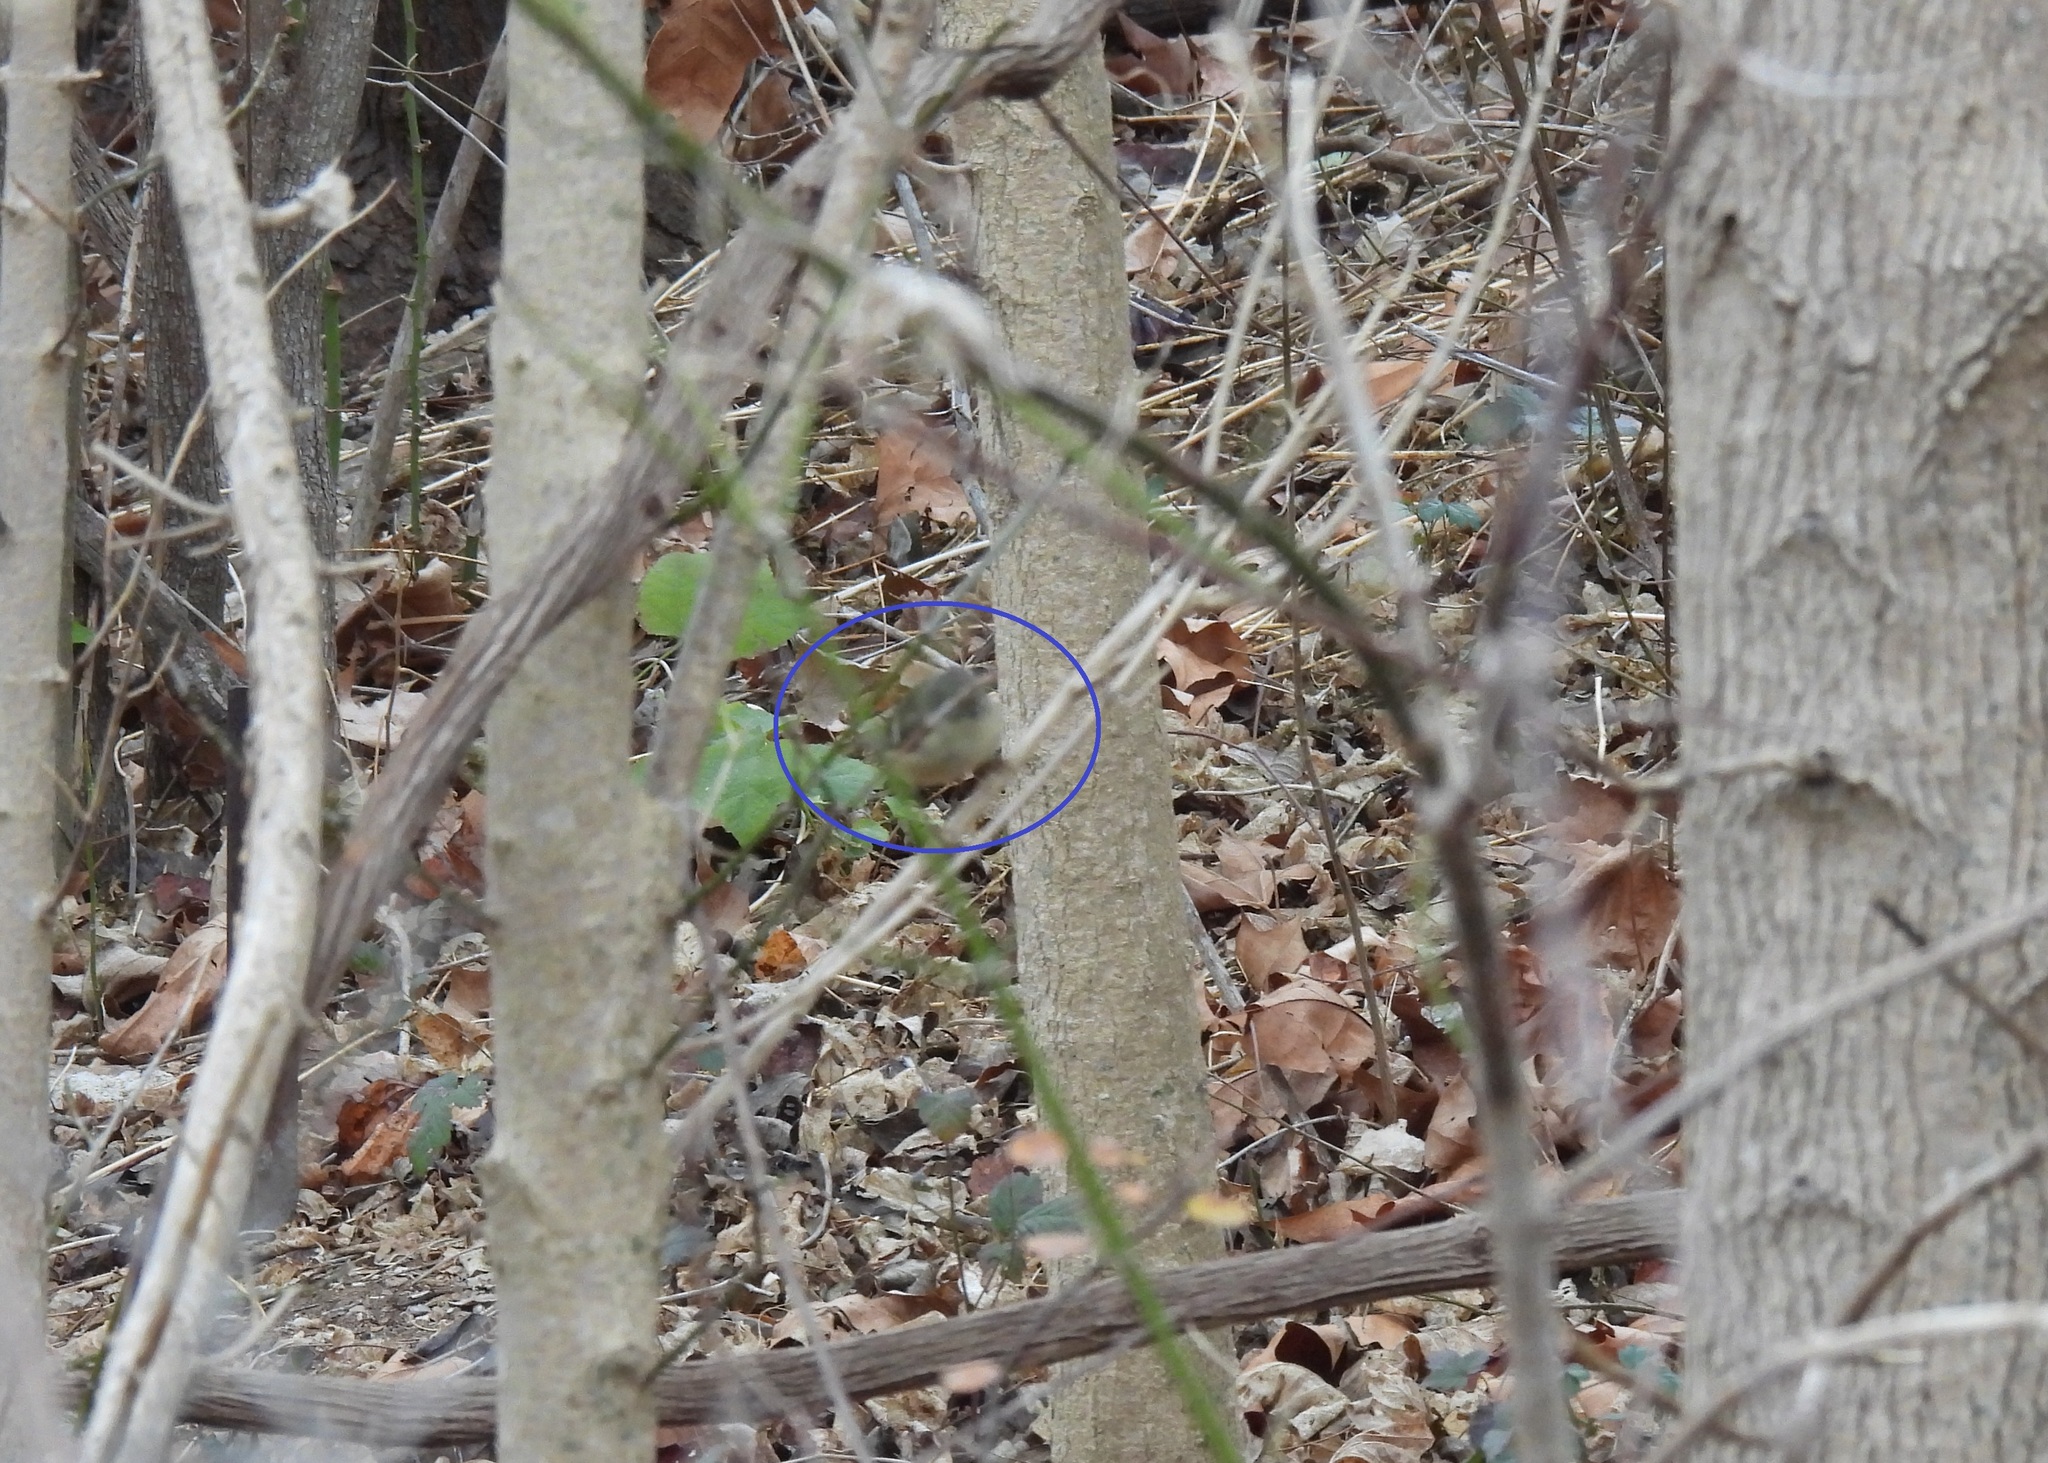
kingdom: Animalia
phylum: Chordata
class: Aves
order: Passeriformes
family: Regulidae
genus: Regulus
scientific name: Regulus calendula
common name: Ruby-crowned kinglet
